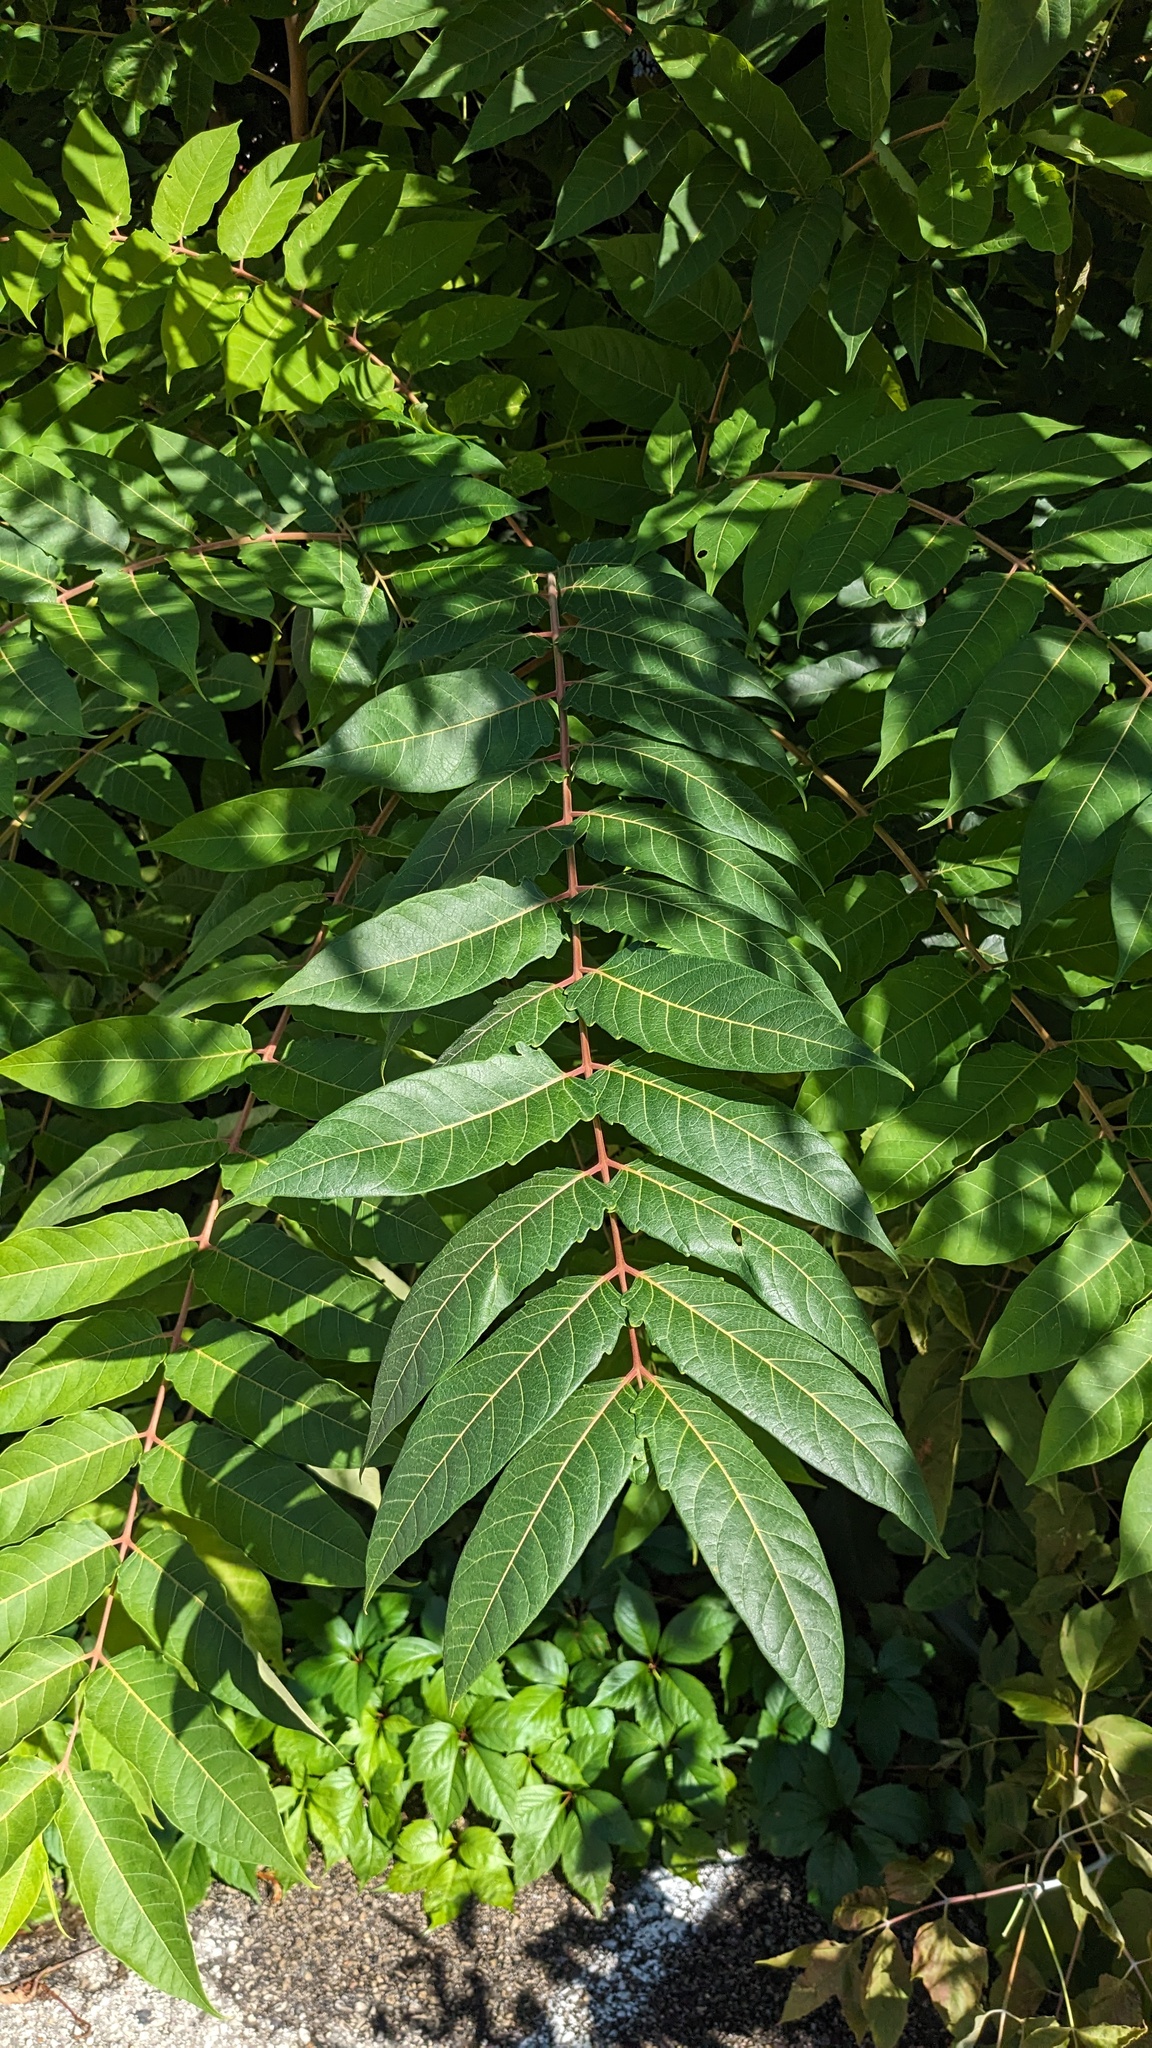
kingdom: Plantae
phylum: Tracheophyta
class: Magnoliopsida
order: Sapindales
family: Simaroubaceae
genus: Ailanthus
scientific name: Ailanthus altissima
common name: Tree-of-heaven
